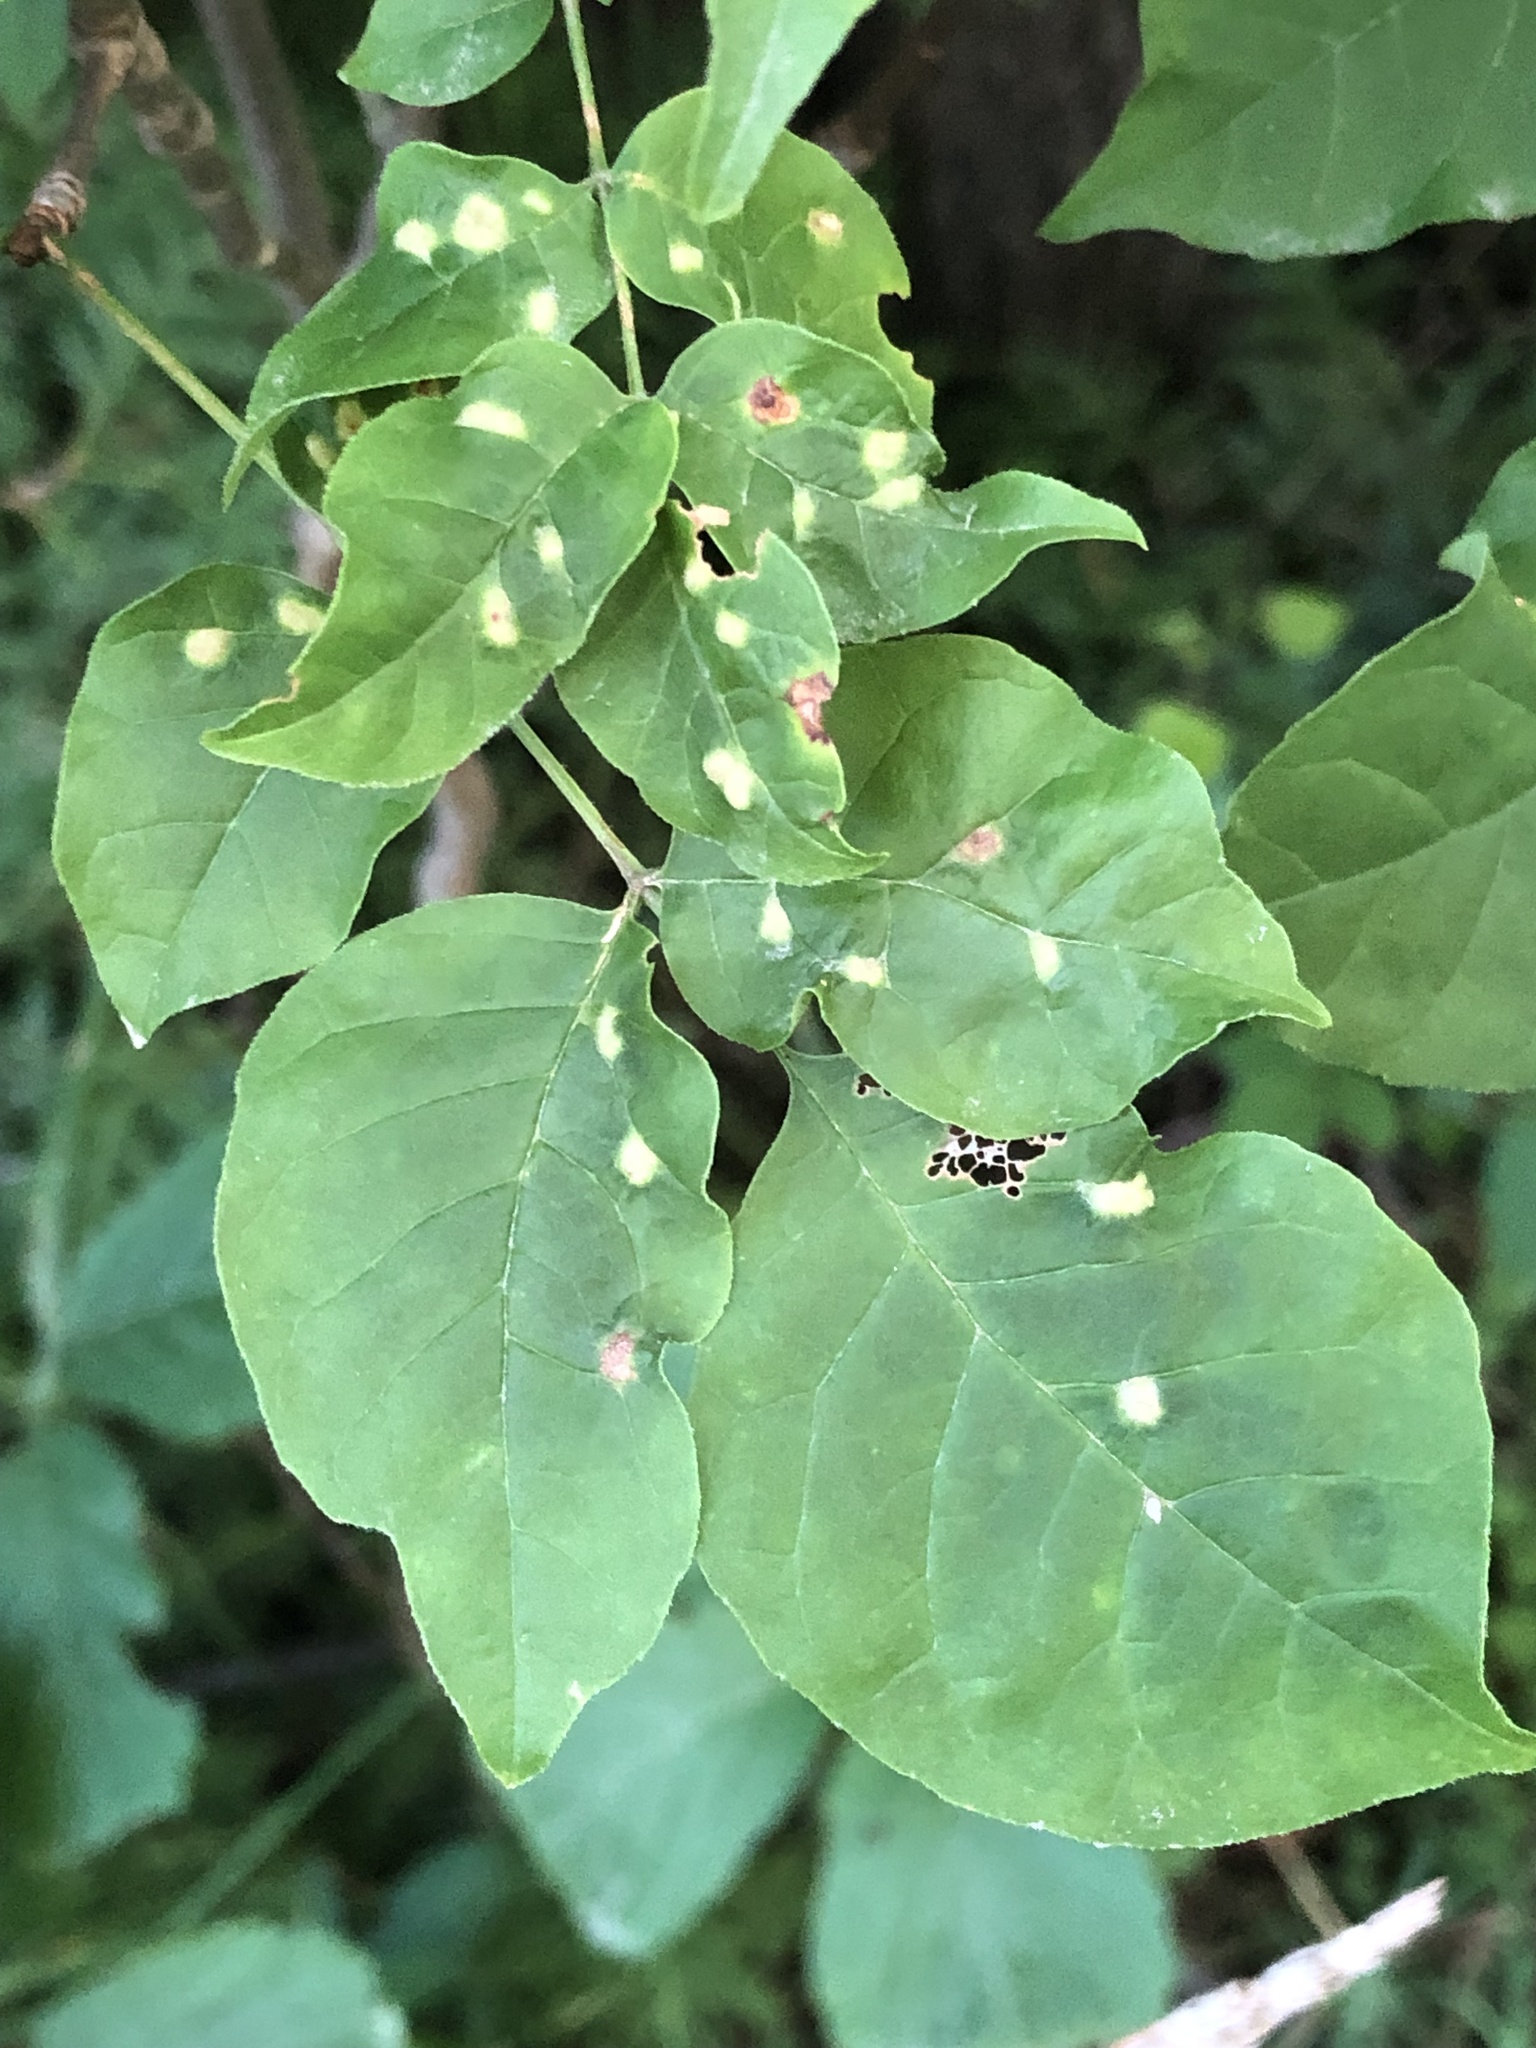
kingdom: Animalia
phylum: Arthropoda
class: Arachnida
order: Trombidiformes
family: Eriophyidae
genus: Aceria
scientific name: Aceria fraxinicola
